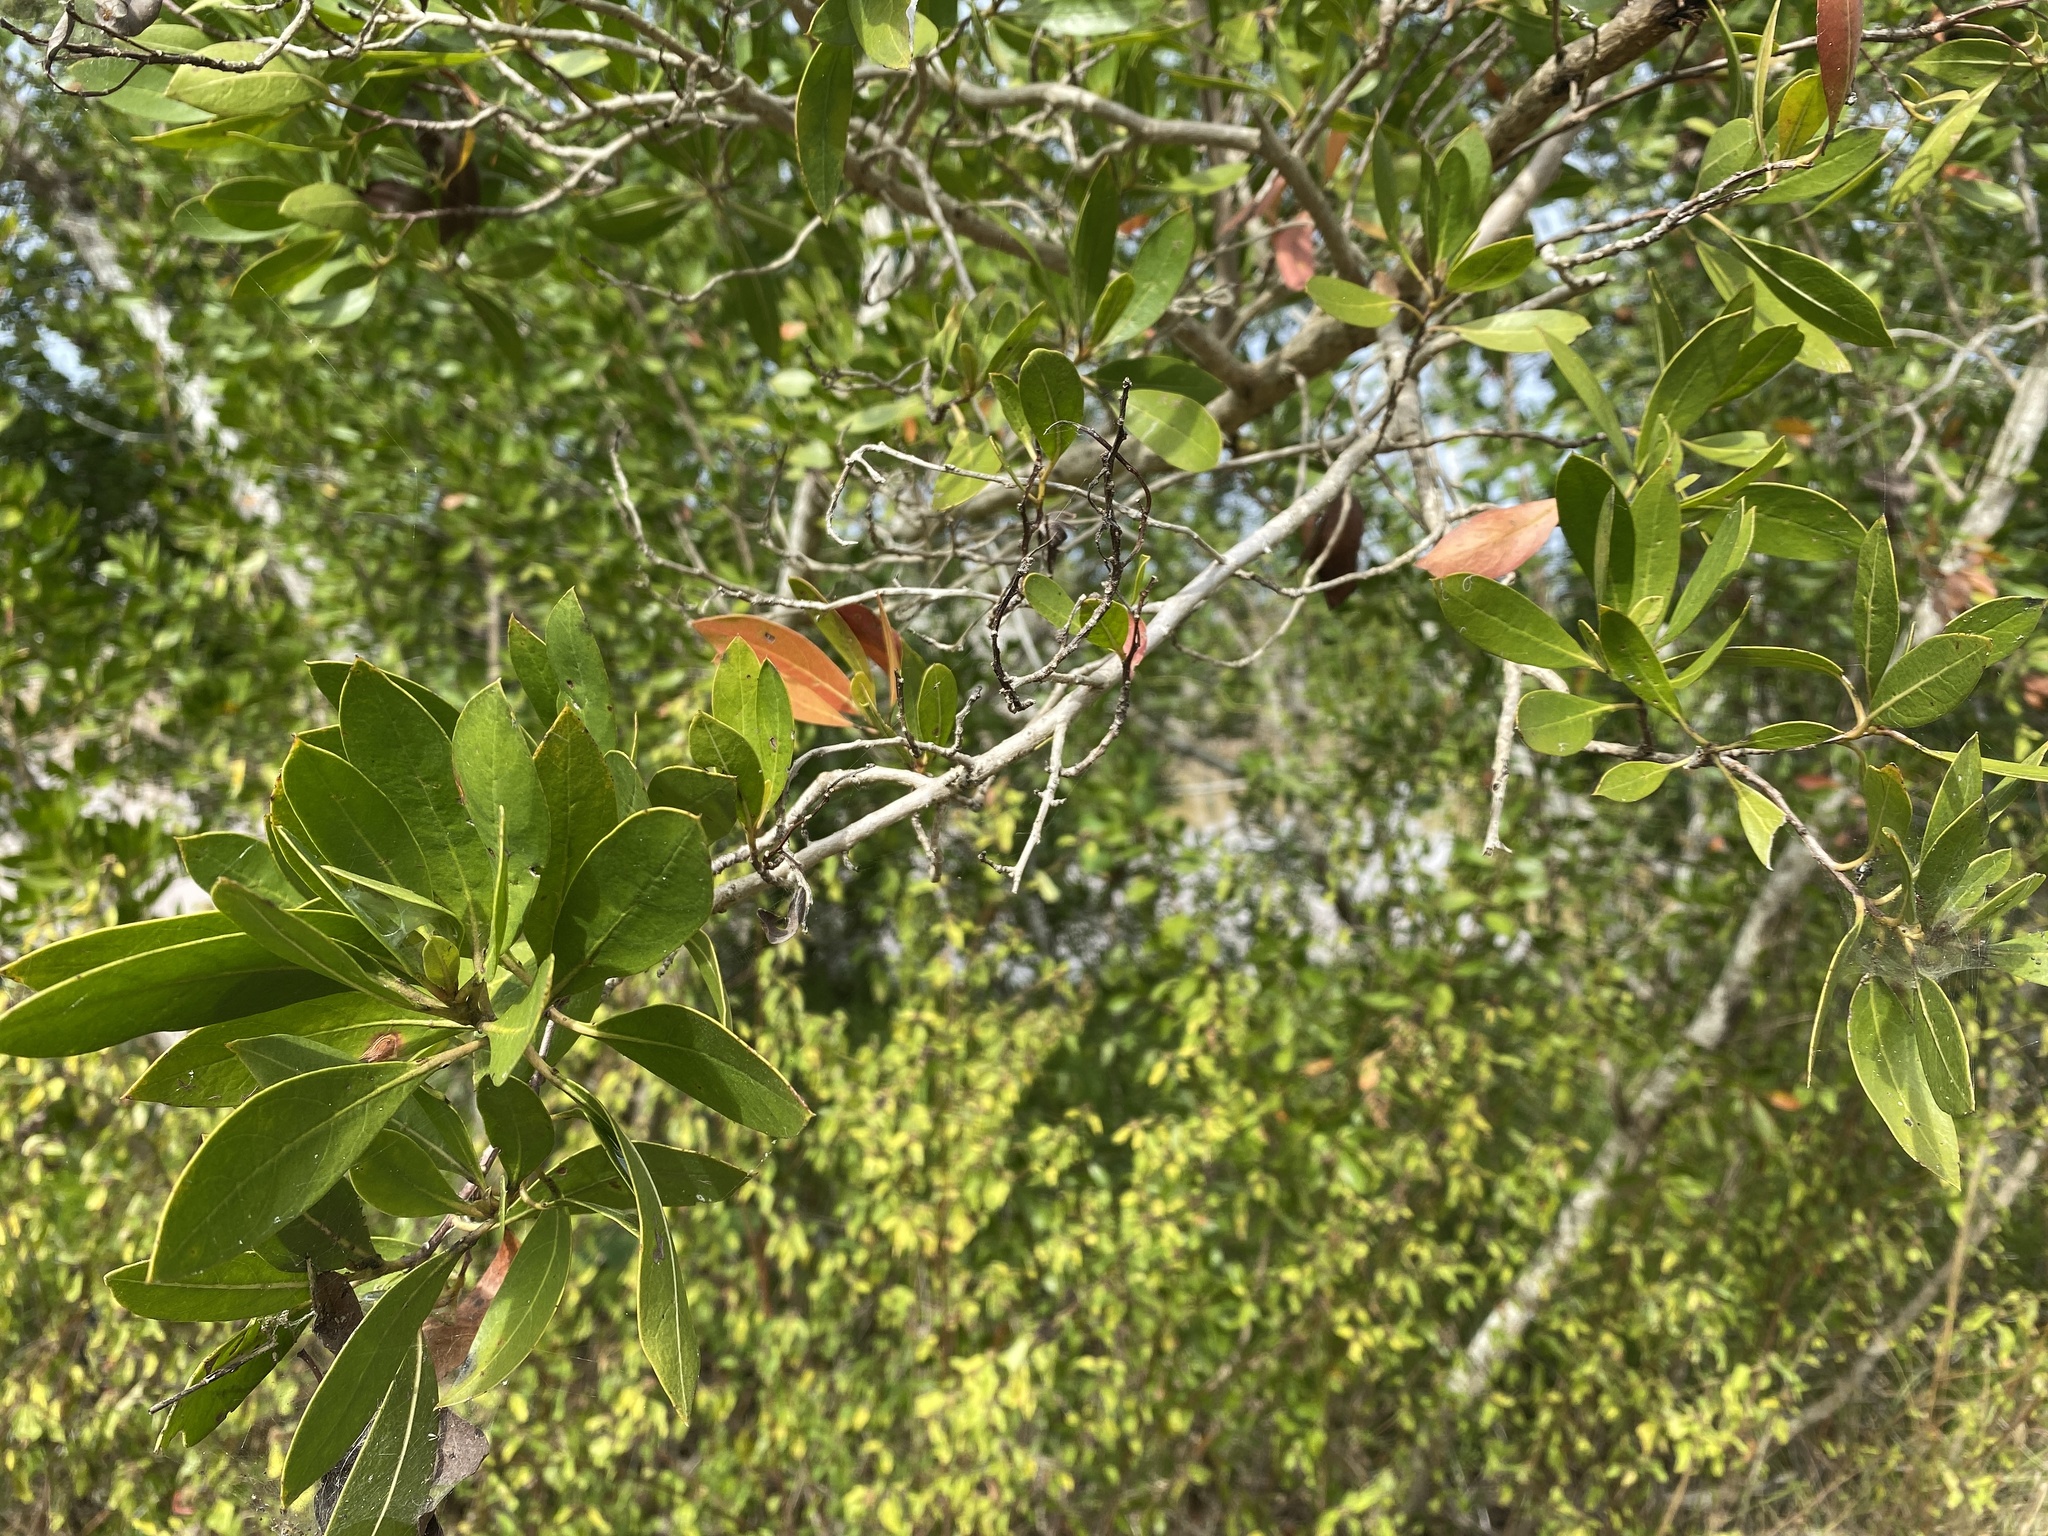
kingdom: Plantae
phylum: Tracheophyta
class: Magnoliopsida
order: Myrtales
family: Combretaceae
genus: Conocarpus
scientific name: Conocarpus erectus
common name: Button mangrove
